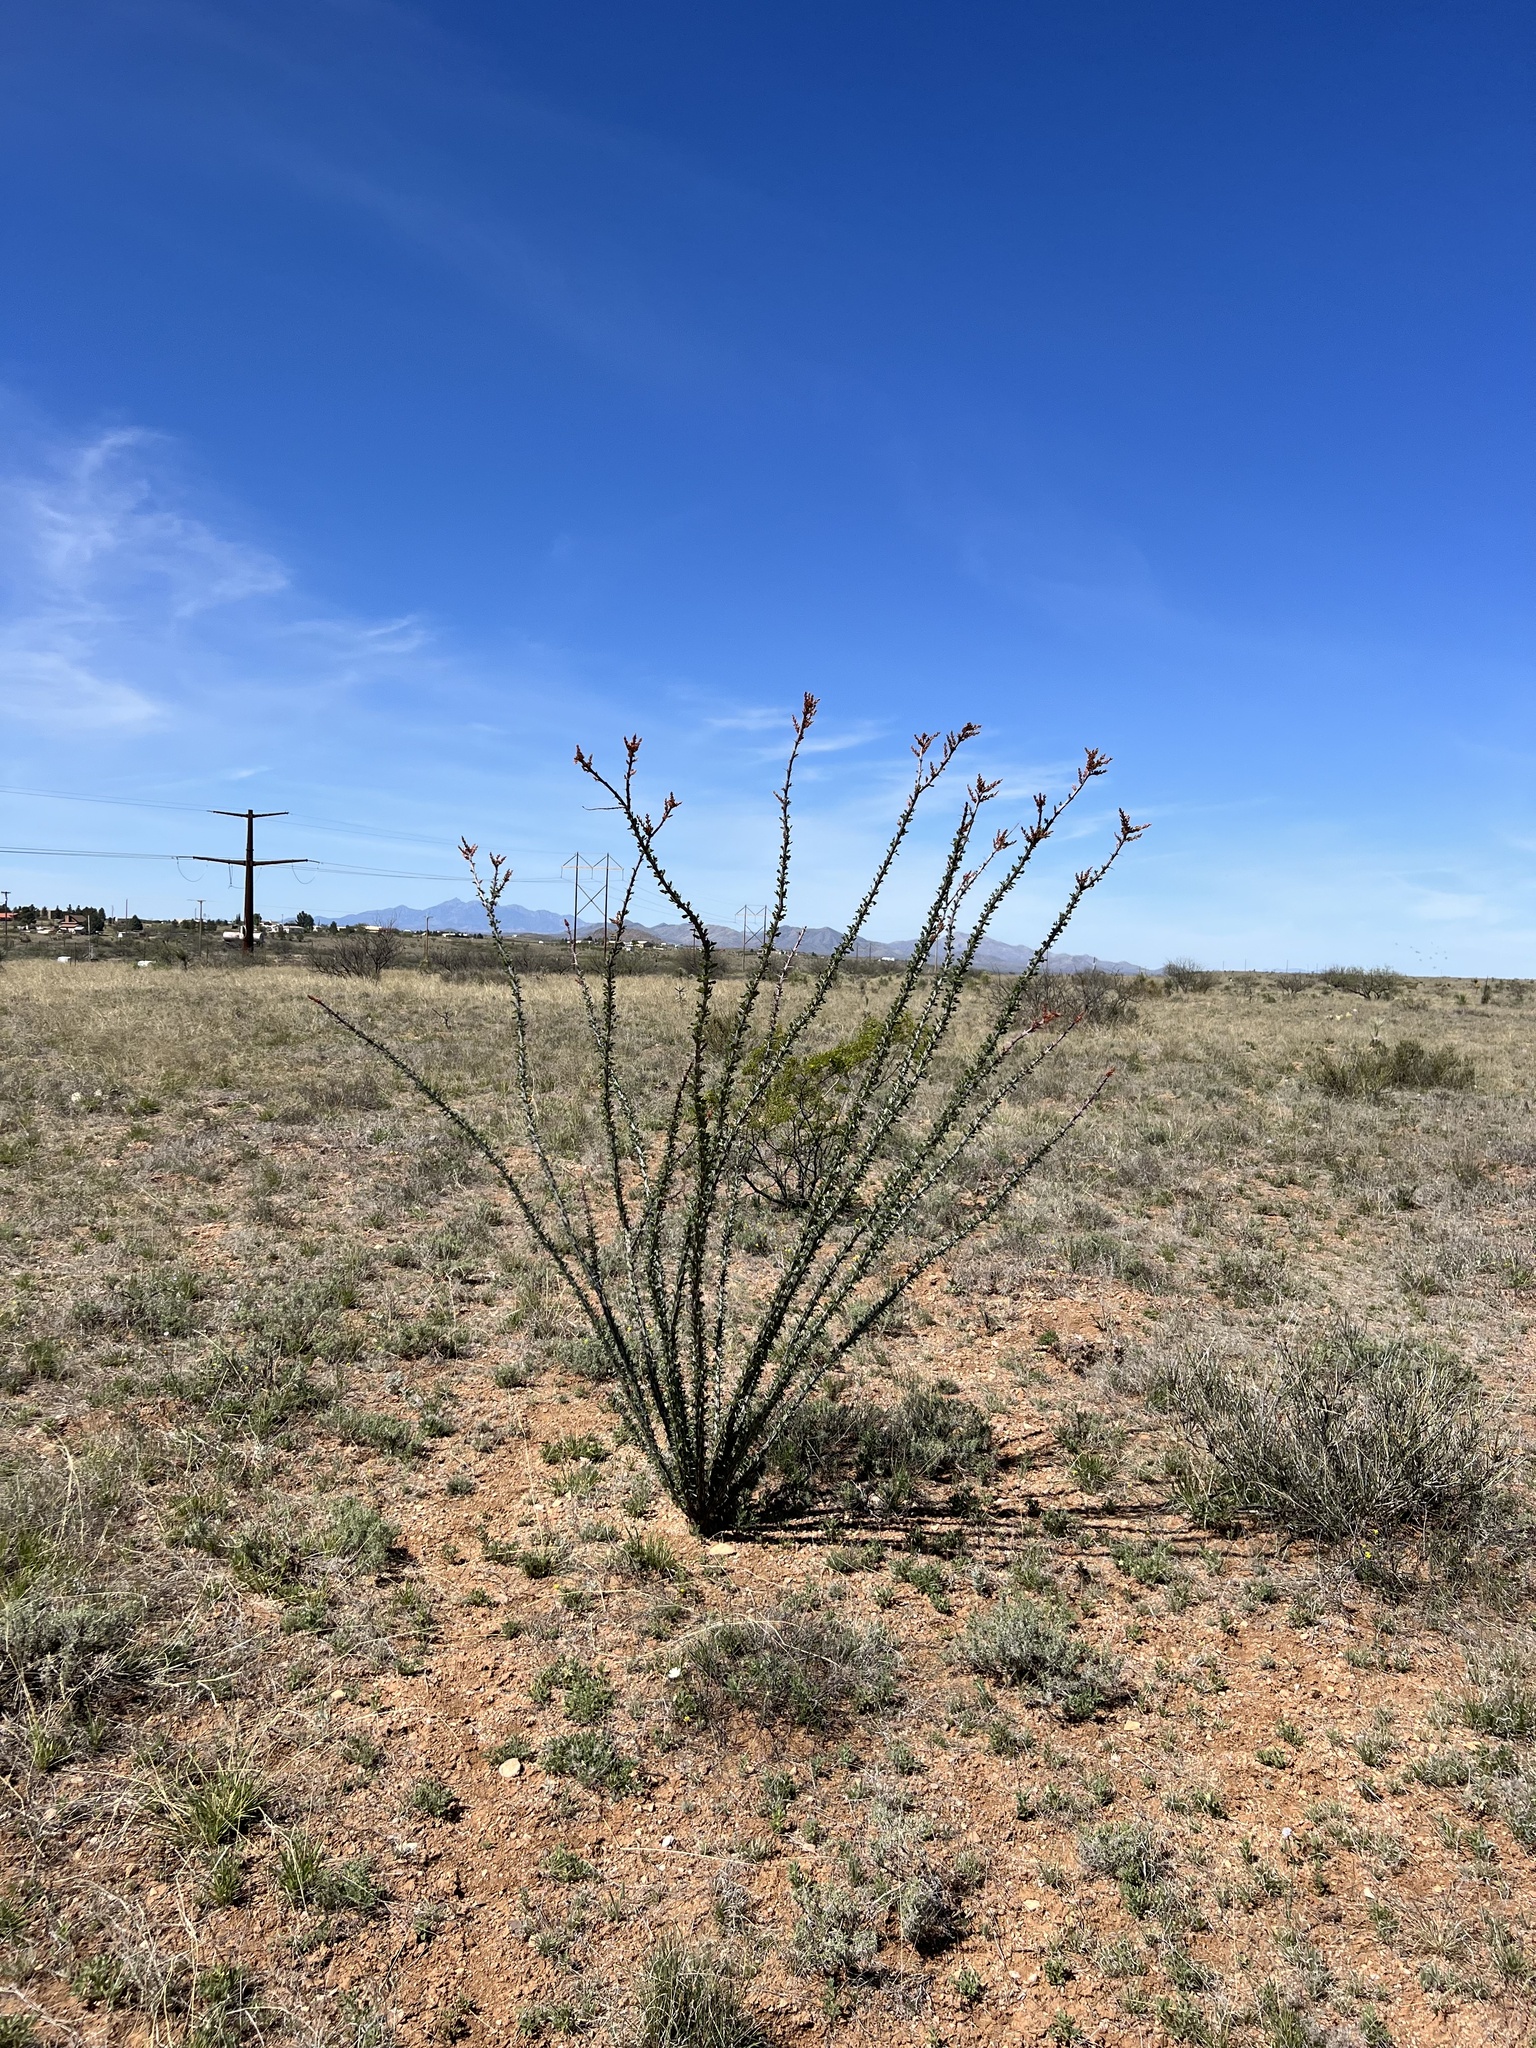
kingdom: Plantae
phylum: Tracheophyta
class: Magnoliopsida
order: Ericales
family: Fouquieriaceae
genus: Fouquieria
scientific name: Fouquieria splendens
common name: Vine-cactus
